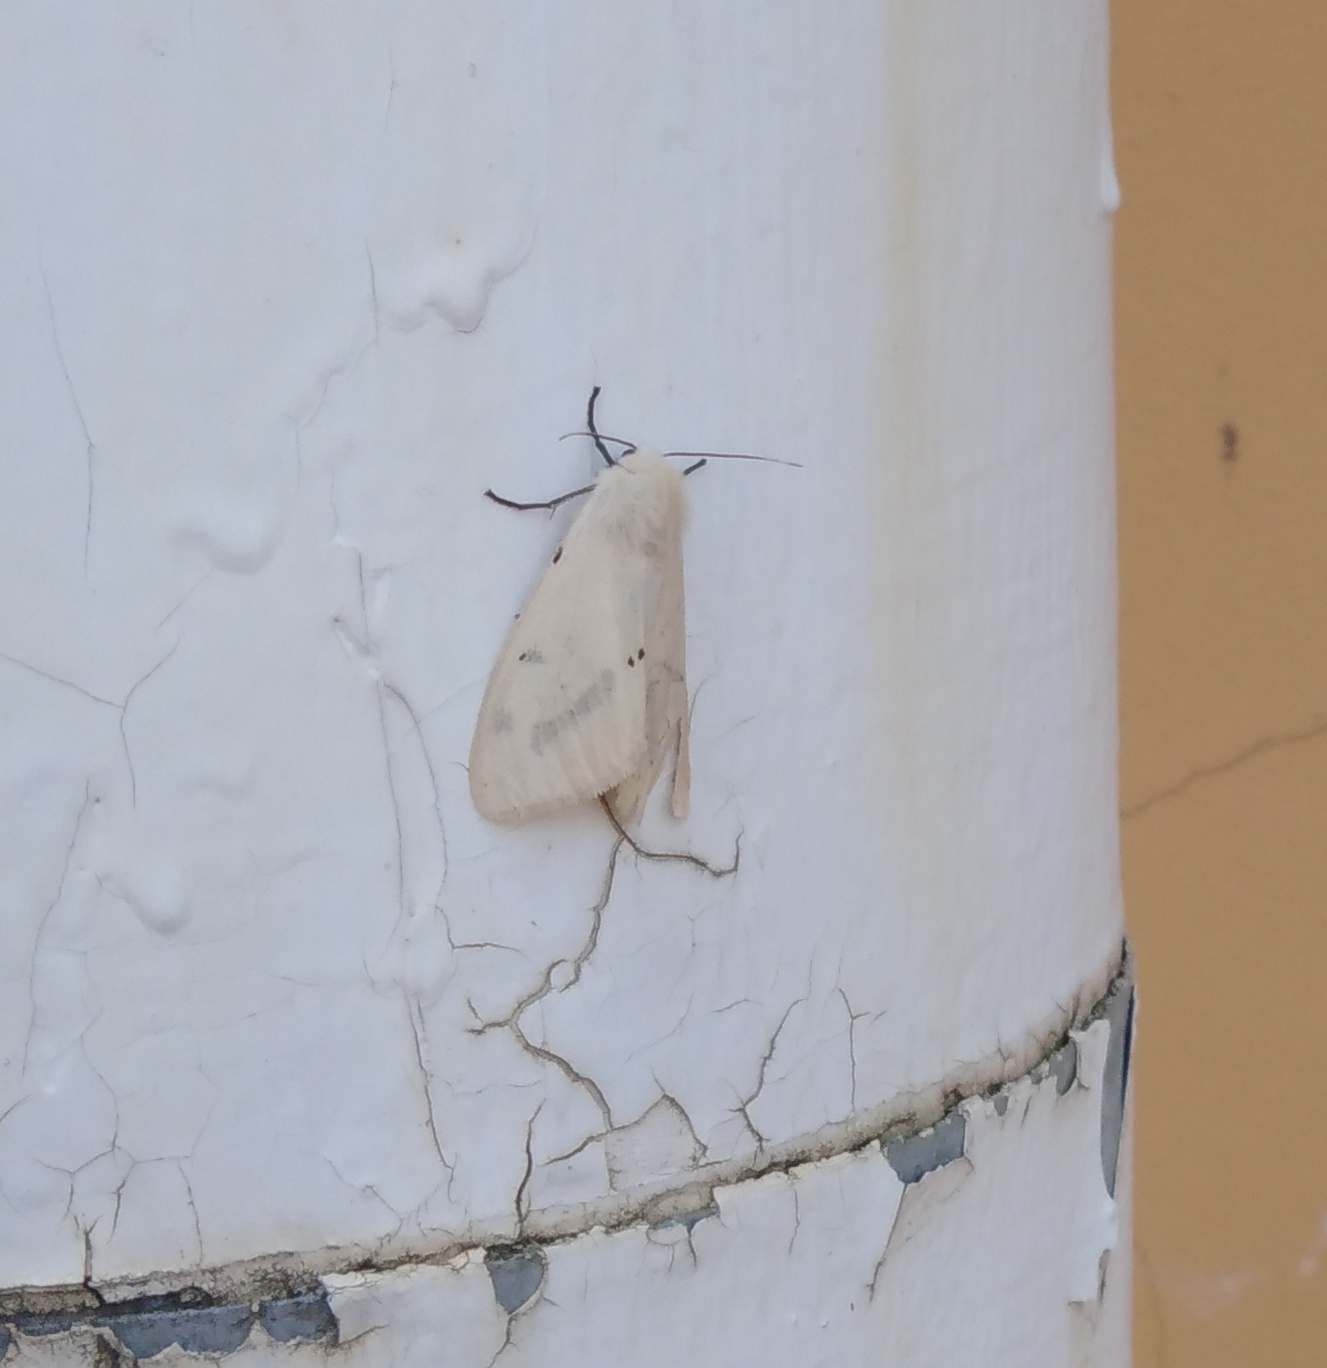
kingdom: Animalia
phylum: Arthropoda
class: Insecta
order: Lepidoptera
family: Erebidae
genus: Spilarctia
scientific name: Spilarctia lutea
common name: Buff ermine
